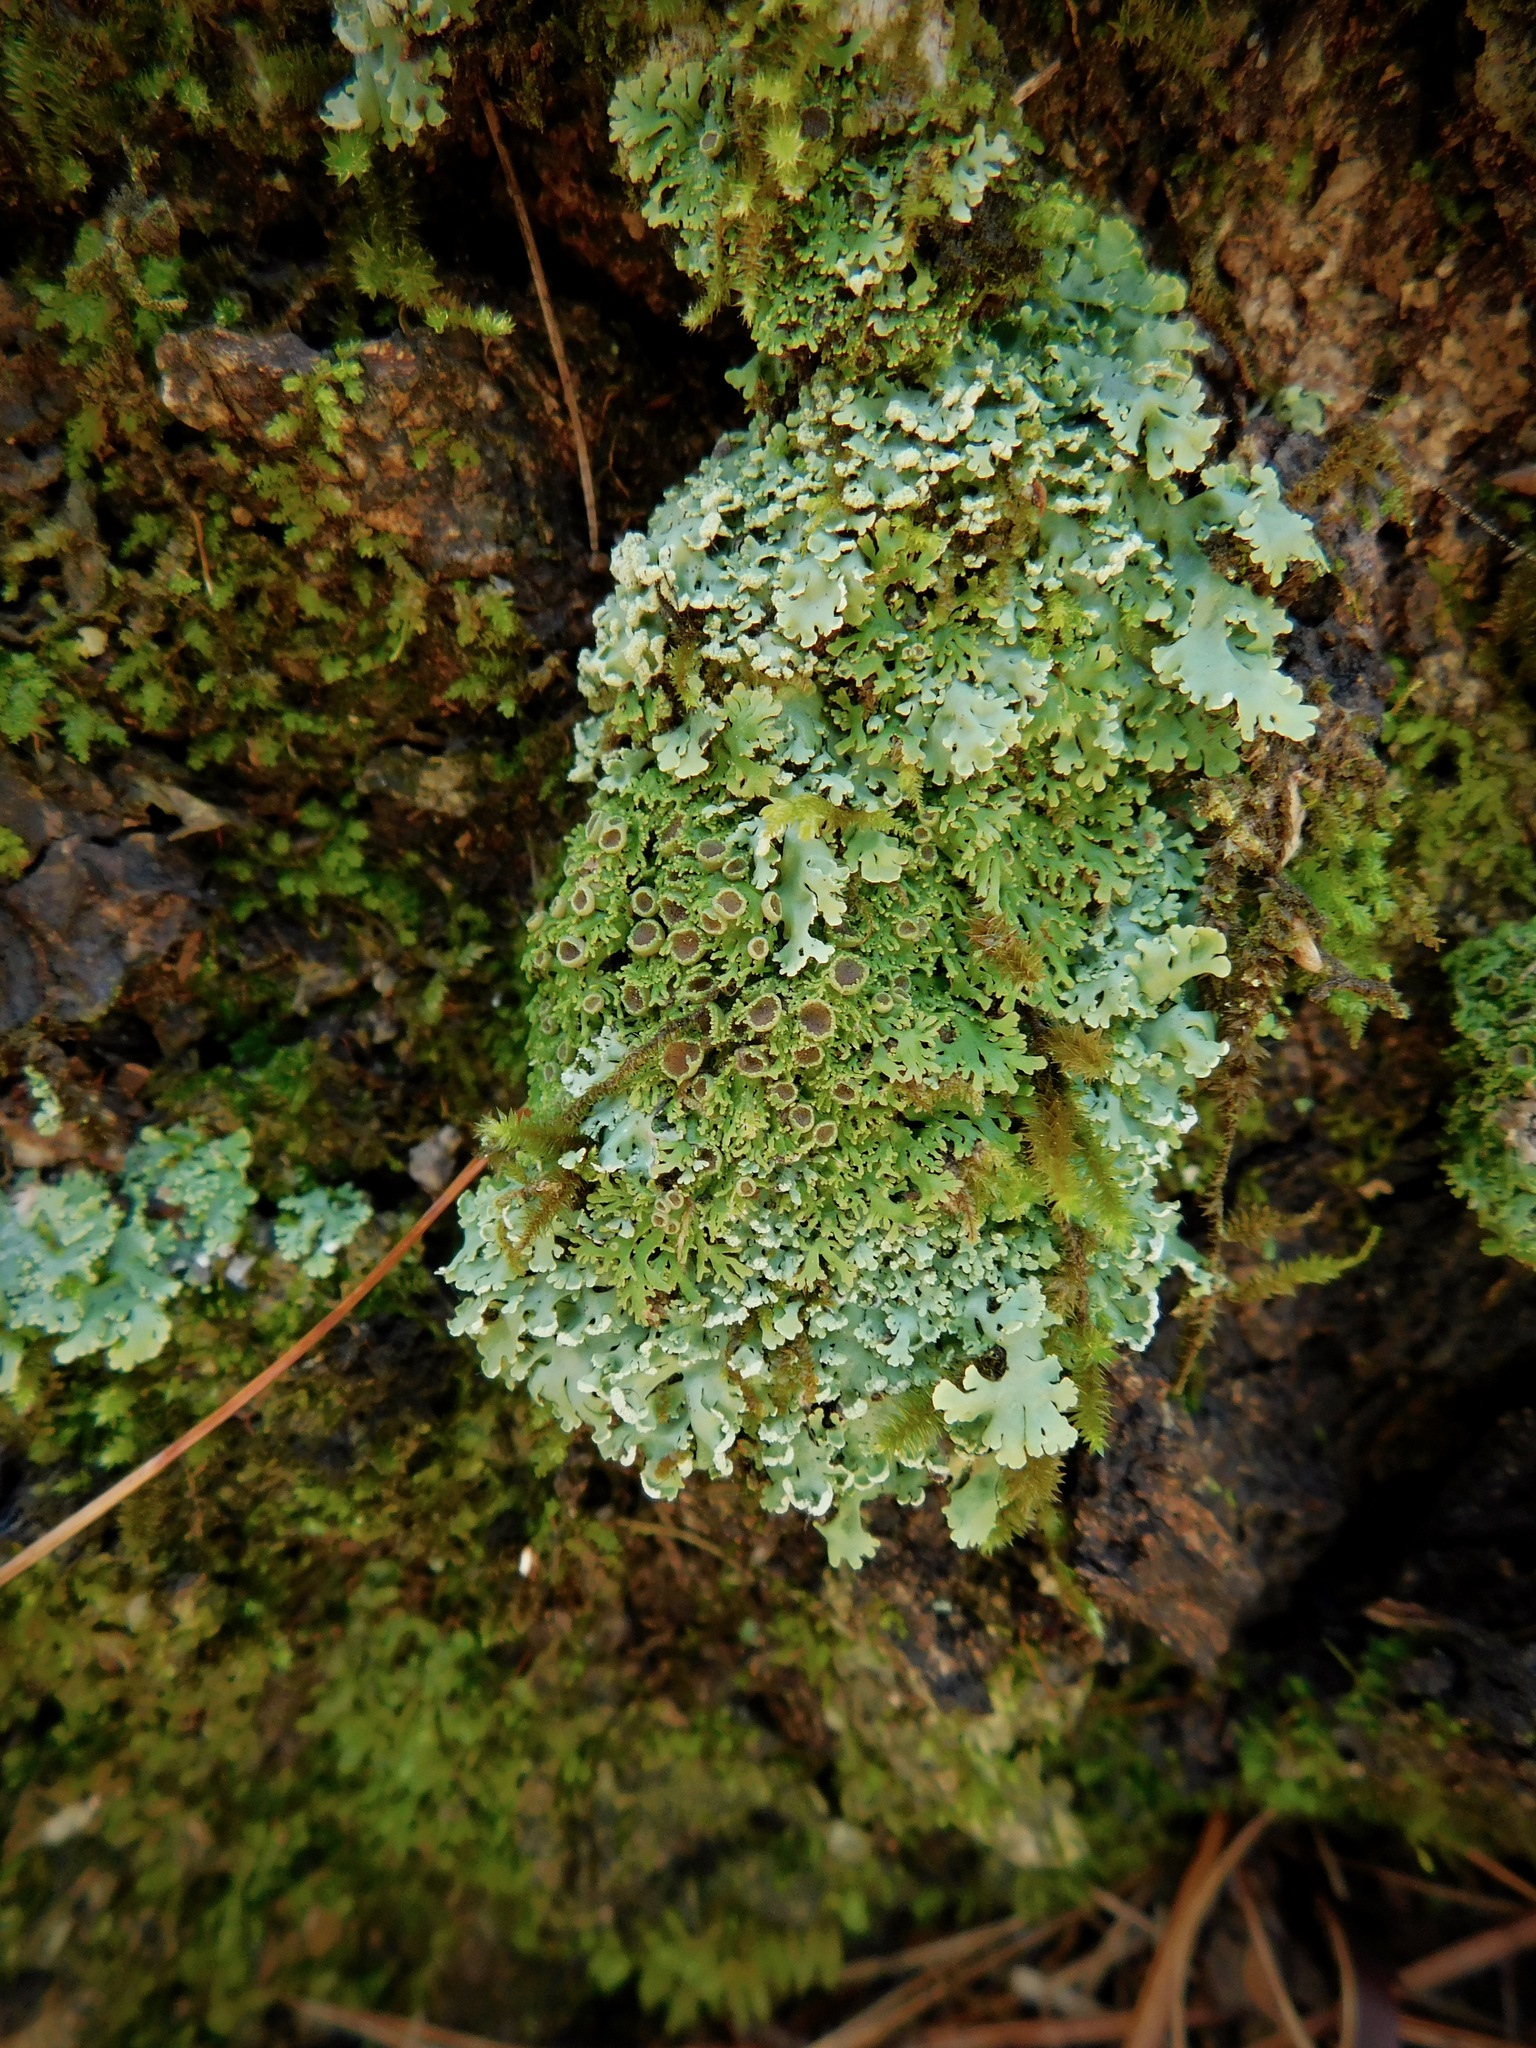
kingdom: Fungi
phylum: Ascomycota
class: Lecanoromycetes
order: Caliciales
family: Physciaceae
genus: Kurokawia
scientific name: Kurokawia palmulata
